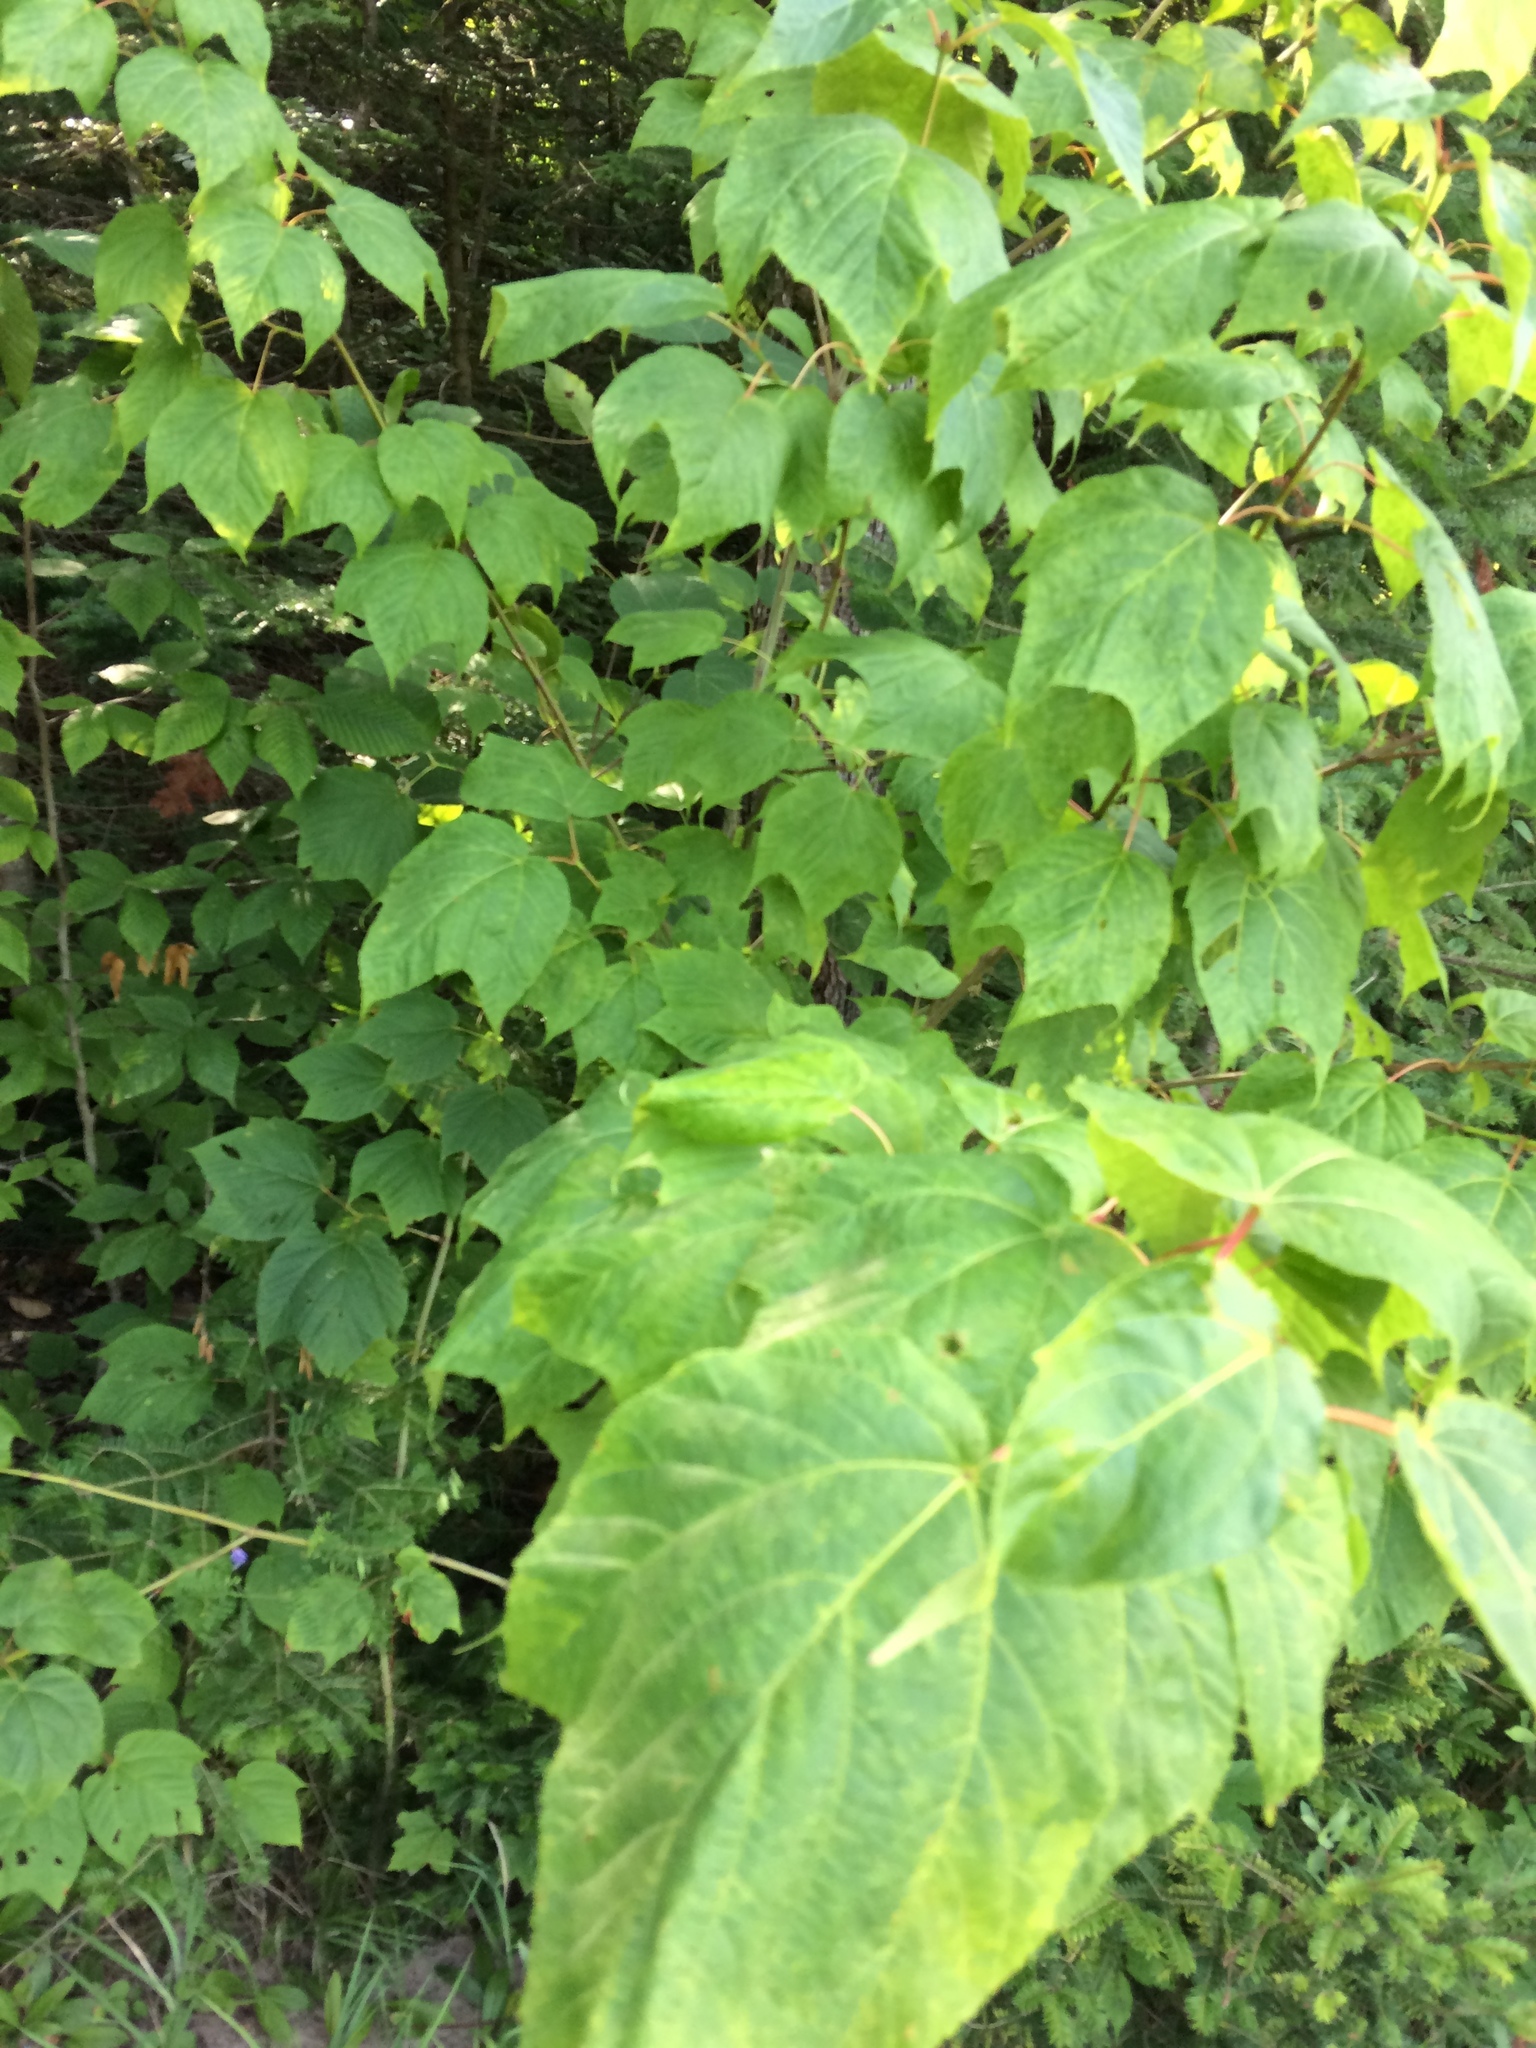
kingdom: Plantae
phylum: Tracheophyta
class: Magnoliopsida
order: Sapindales
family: Sapindaceae
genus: Acer
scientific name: Acer pensylvanicum
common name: Moosewood
